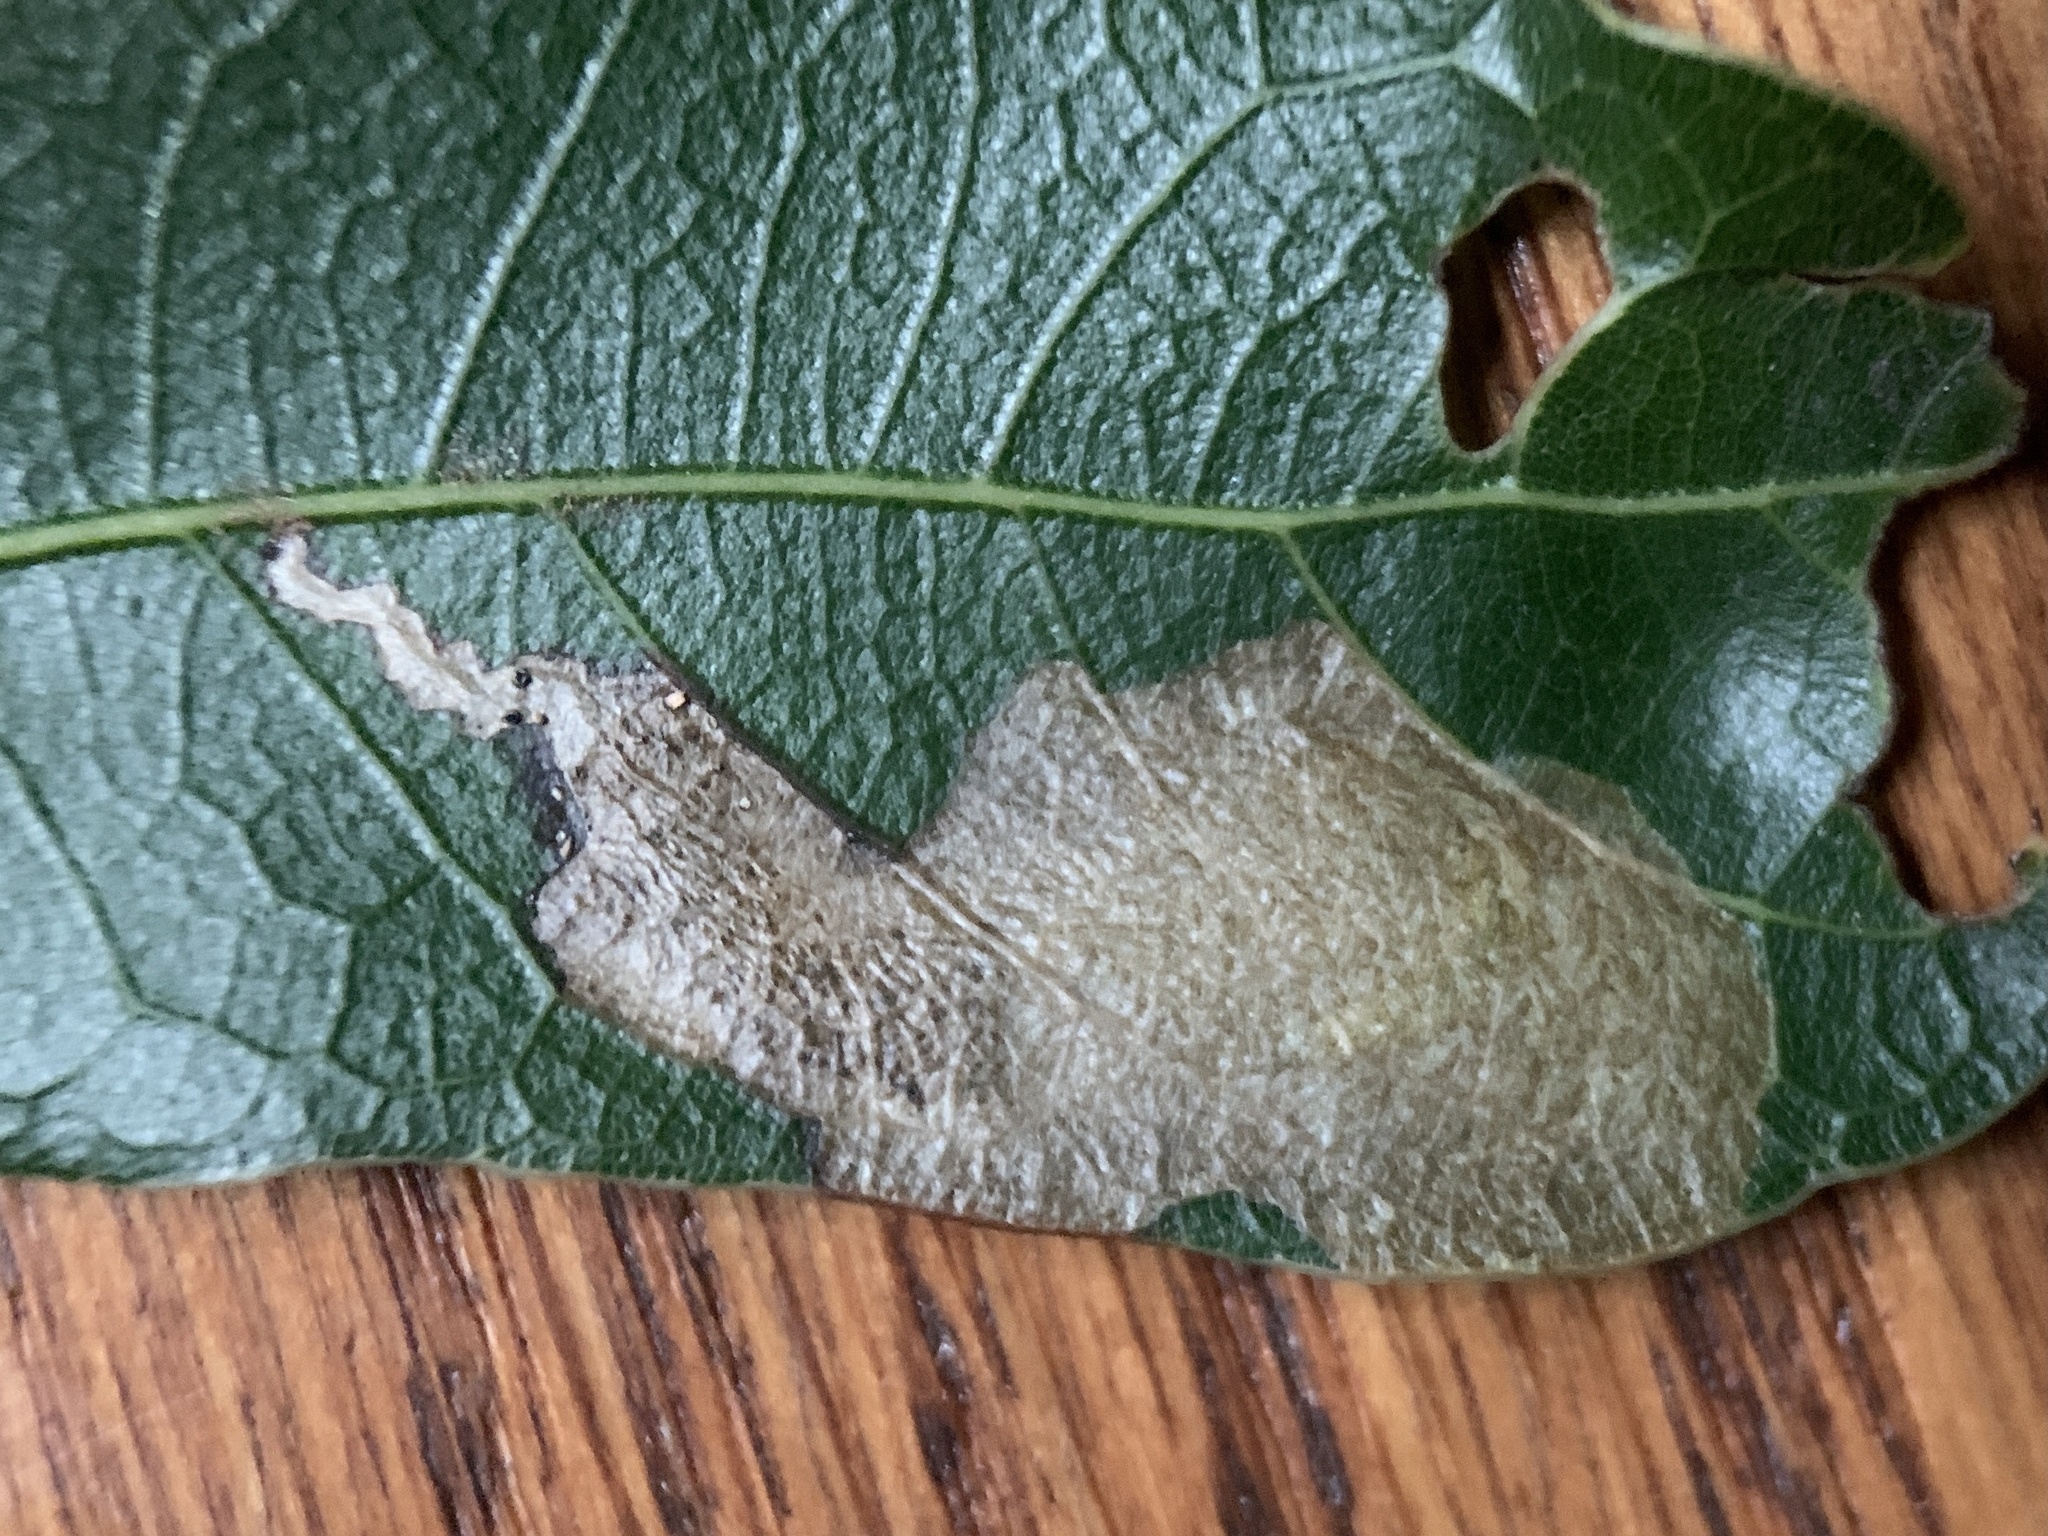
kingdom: Animalia
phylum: Arthropoda
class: Insecta
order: Lepidoptera
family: Tischeriidae
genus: Coptotriche
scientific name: Coptotriche castaneaeella
